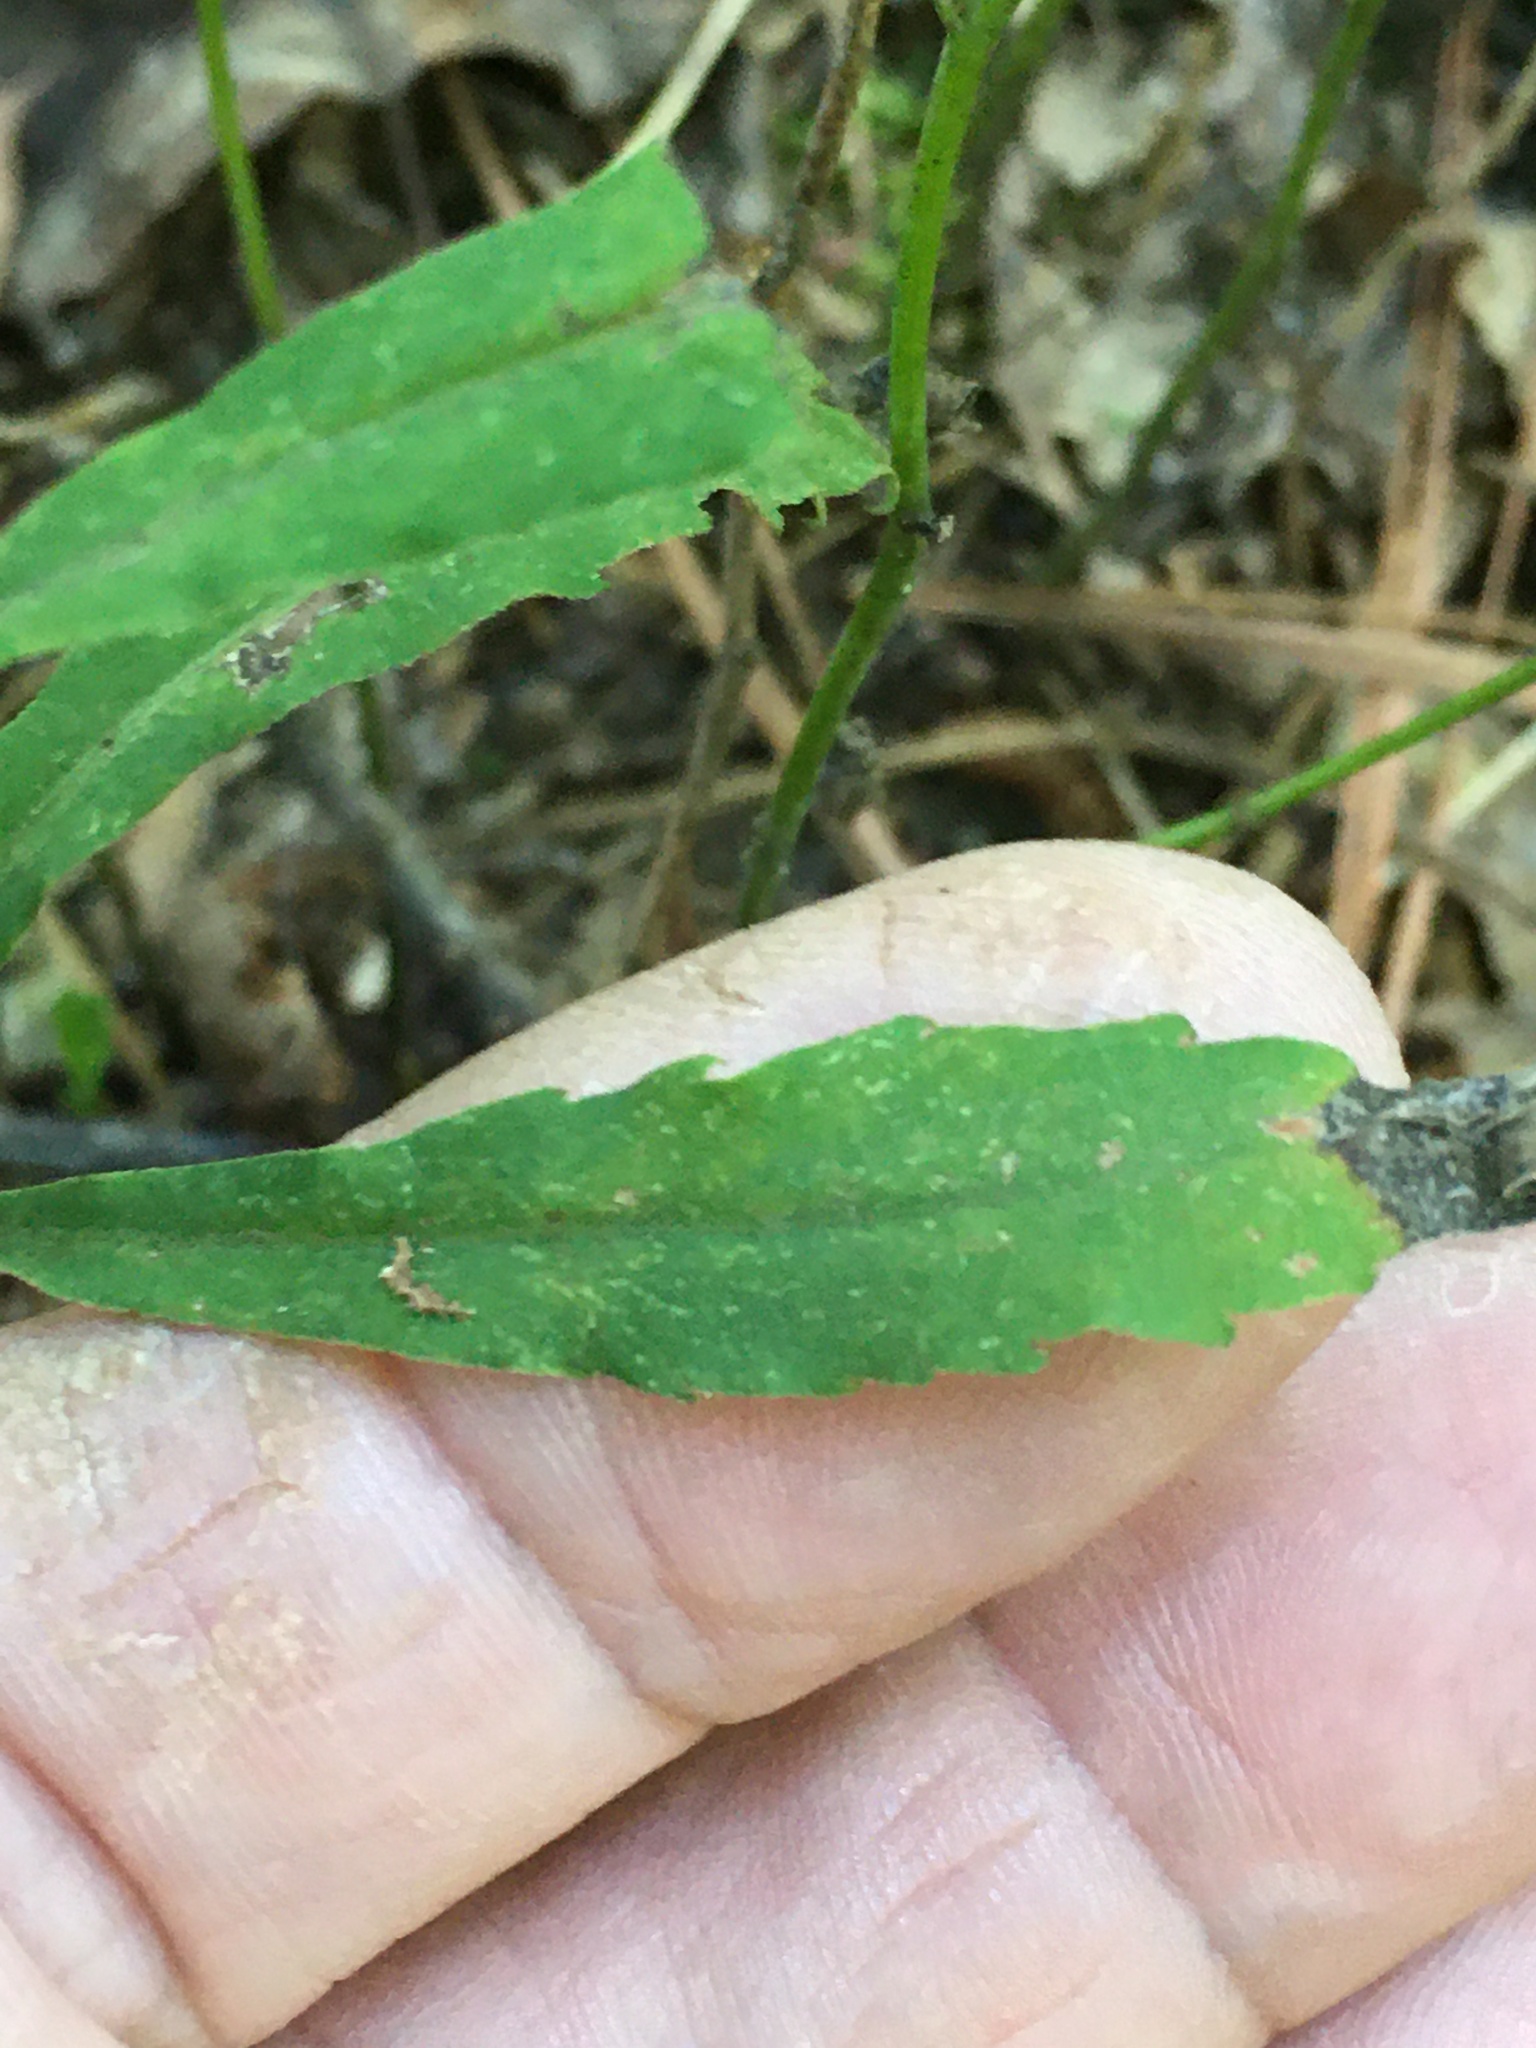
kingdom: Plantae
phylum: Tracheophyta
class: Magnoliopsida
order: Asterales
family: Asteraceae
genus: Solidago
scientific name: Solidago caesia
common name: Woodland goldenrod
